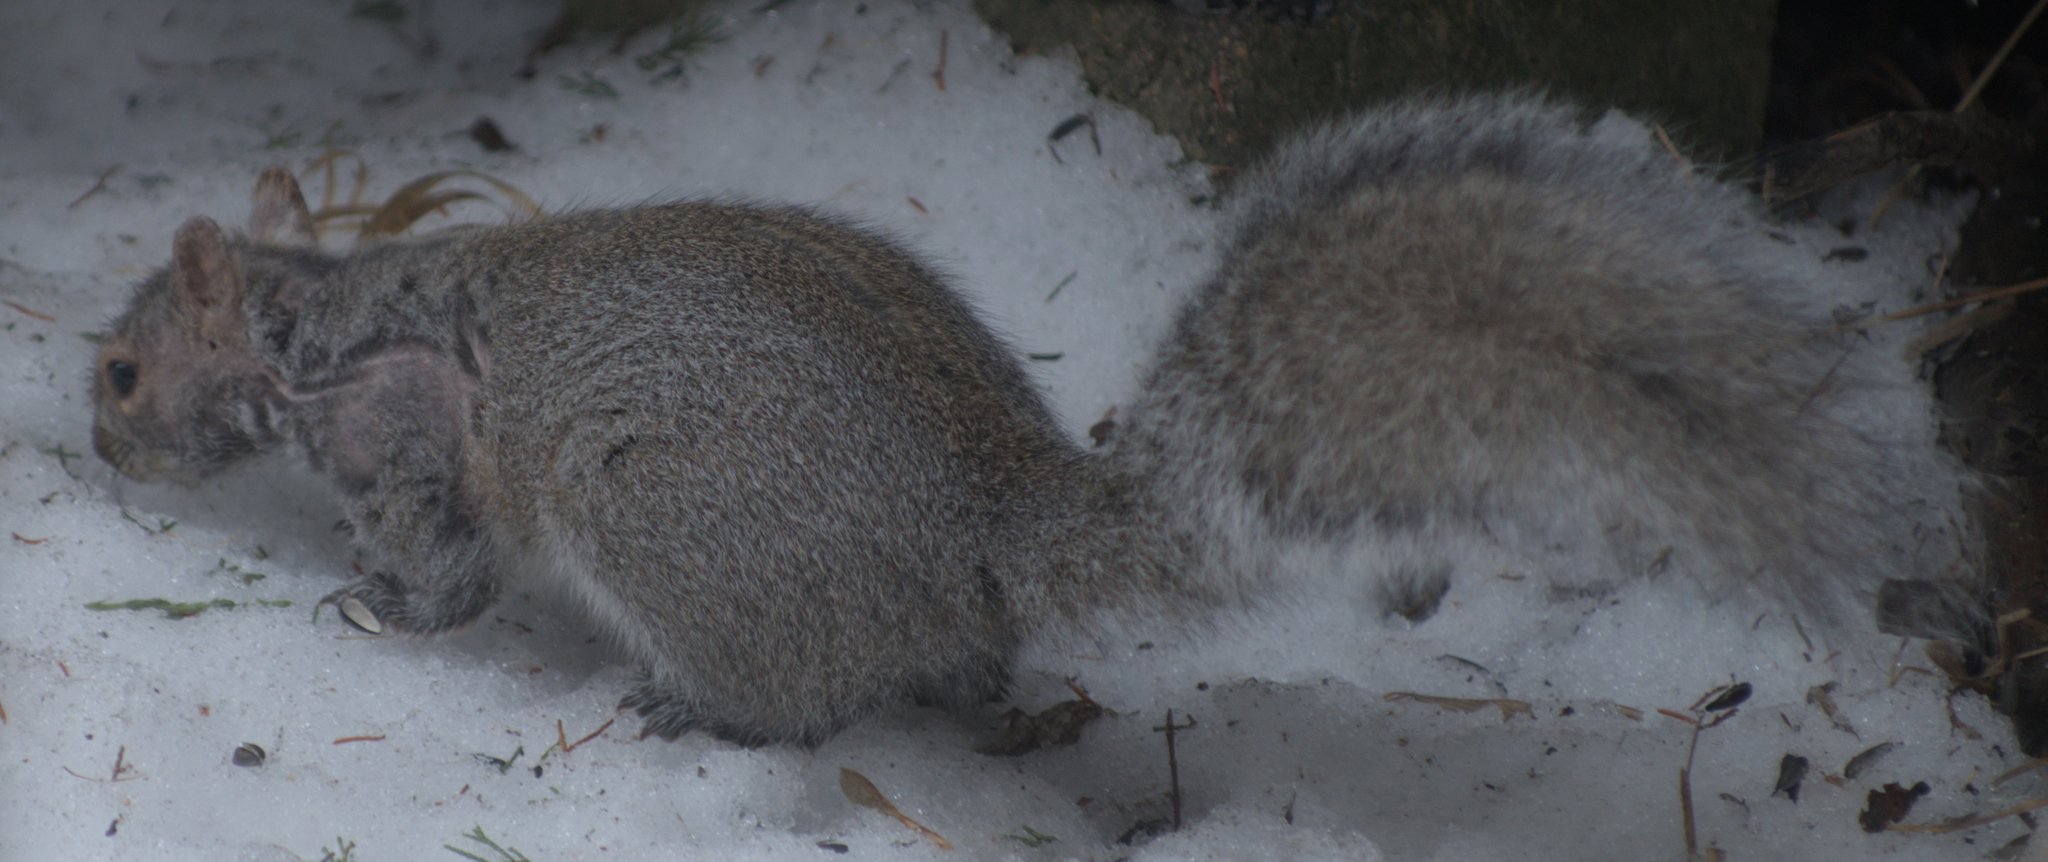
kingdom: Animalia
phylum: Chordata
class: Mammalia
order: Rodentia
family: Sciuridae
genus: Sciurus
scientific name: Sciurus carolinensis
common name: Eastern gray squirrel
